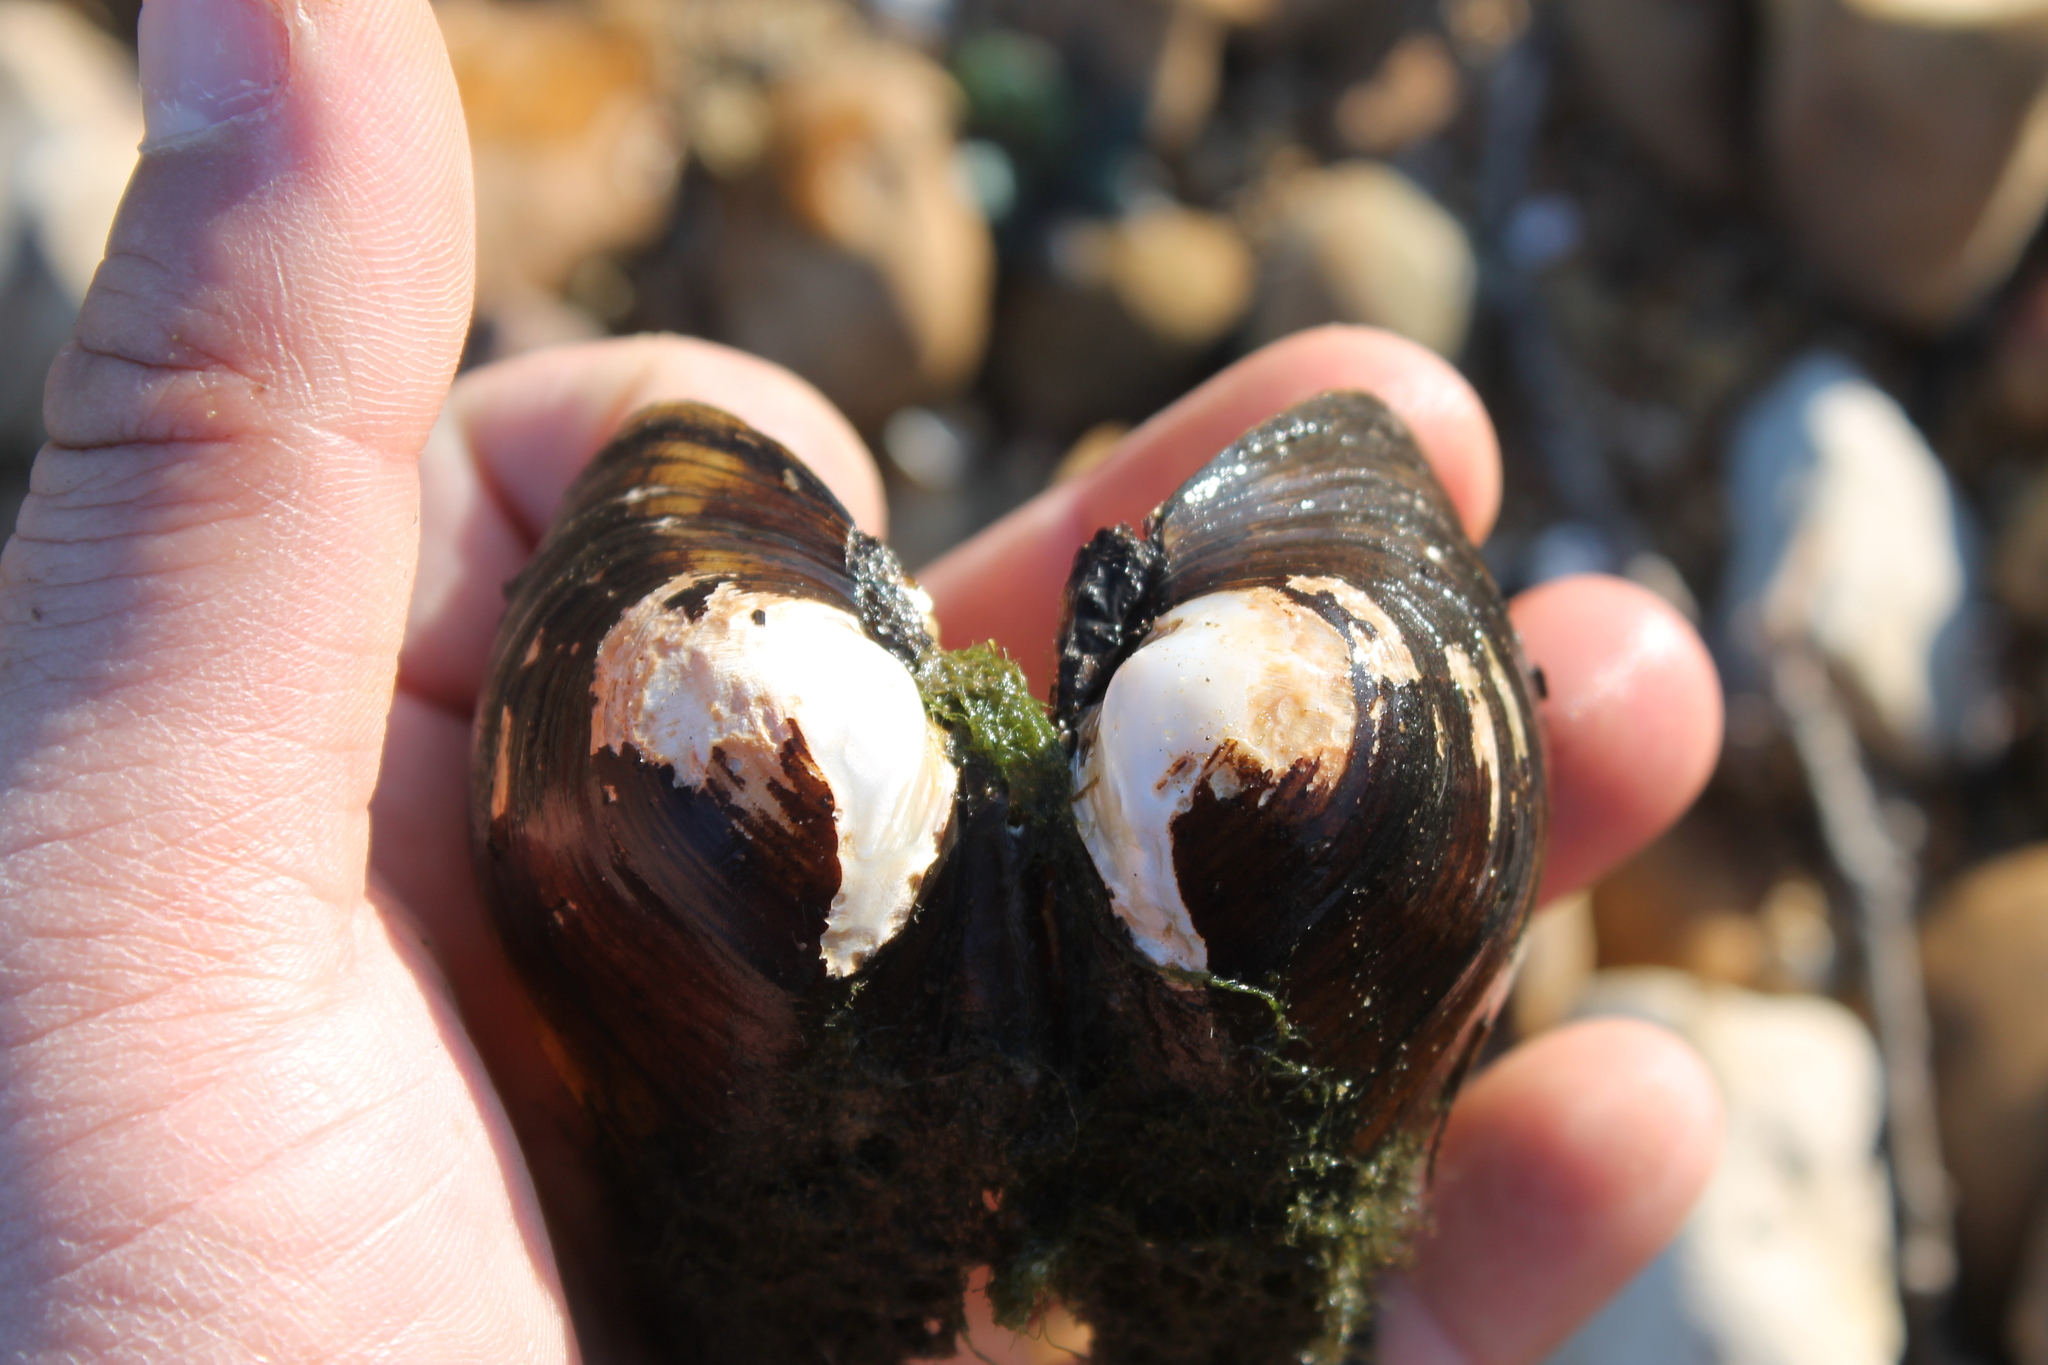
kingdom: Animalia
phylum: Mollusca
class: Bivalvia
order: Unionida
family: Unionidae
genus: Fusconaia
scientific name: Fusconaia flava
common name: Wabash pigtoe
